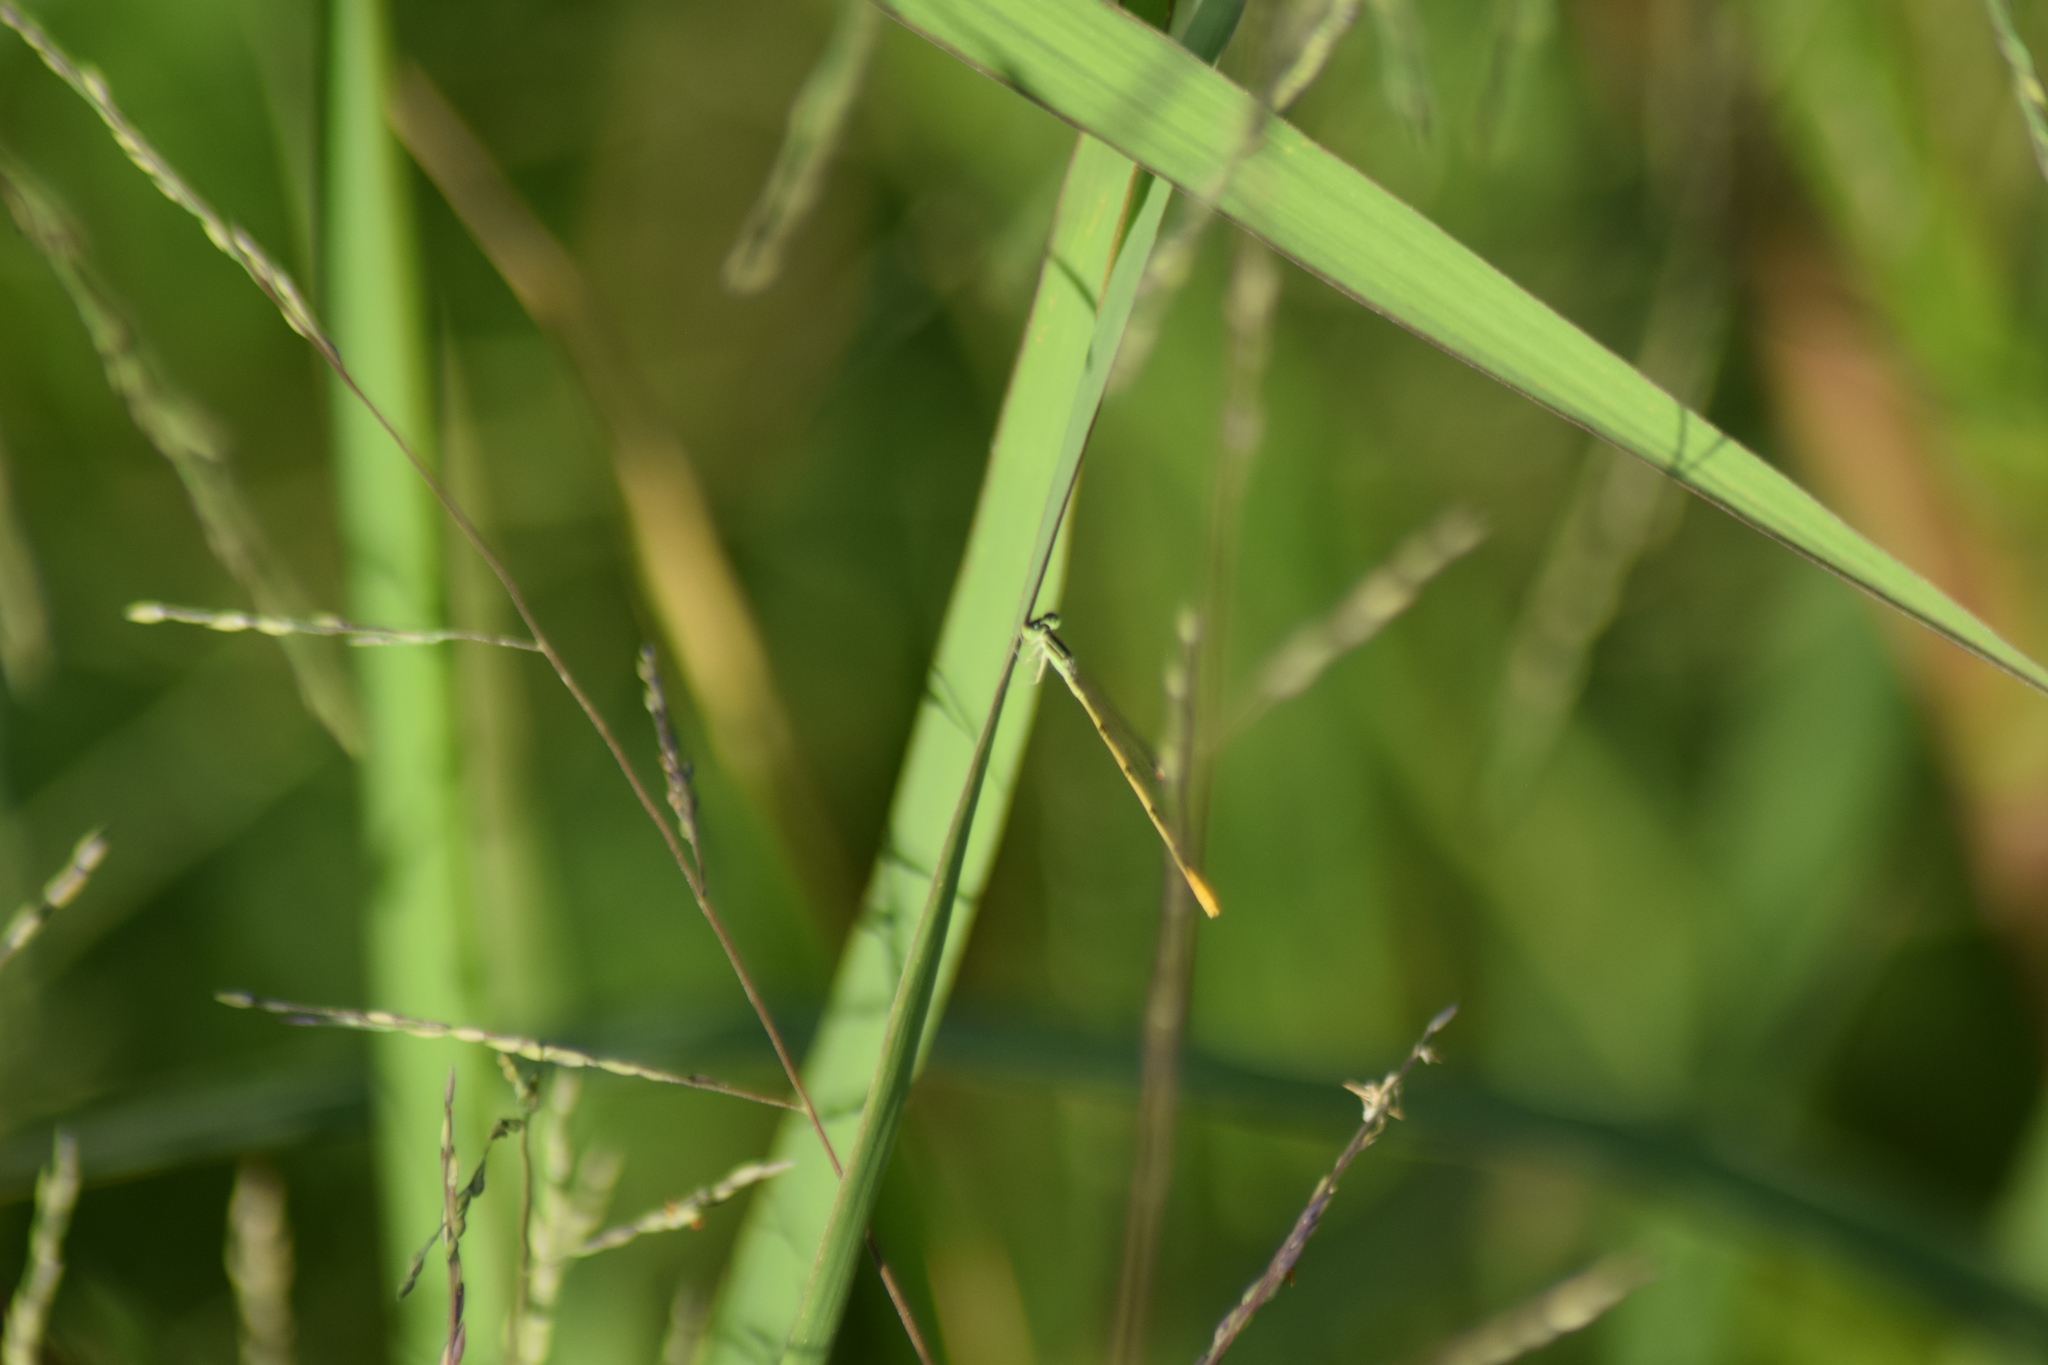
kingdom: Animalia
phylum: Arthropoda
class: Insecta
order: Odonata
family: Coenagrionidae
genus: Ischnura
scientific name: Ischnura hastata
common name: Citrine forktail
